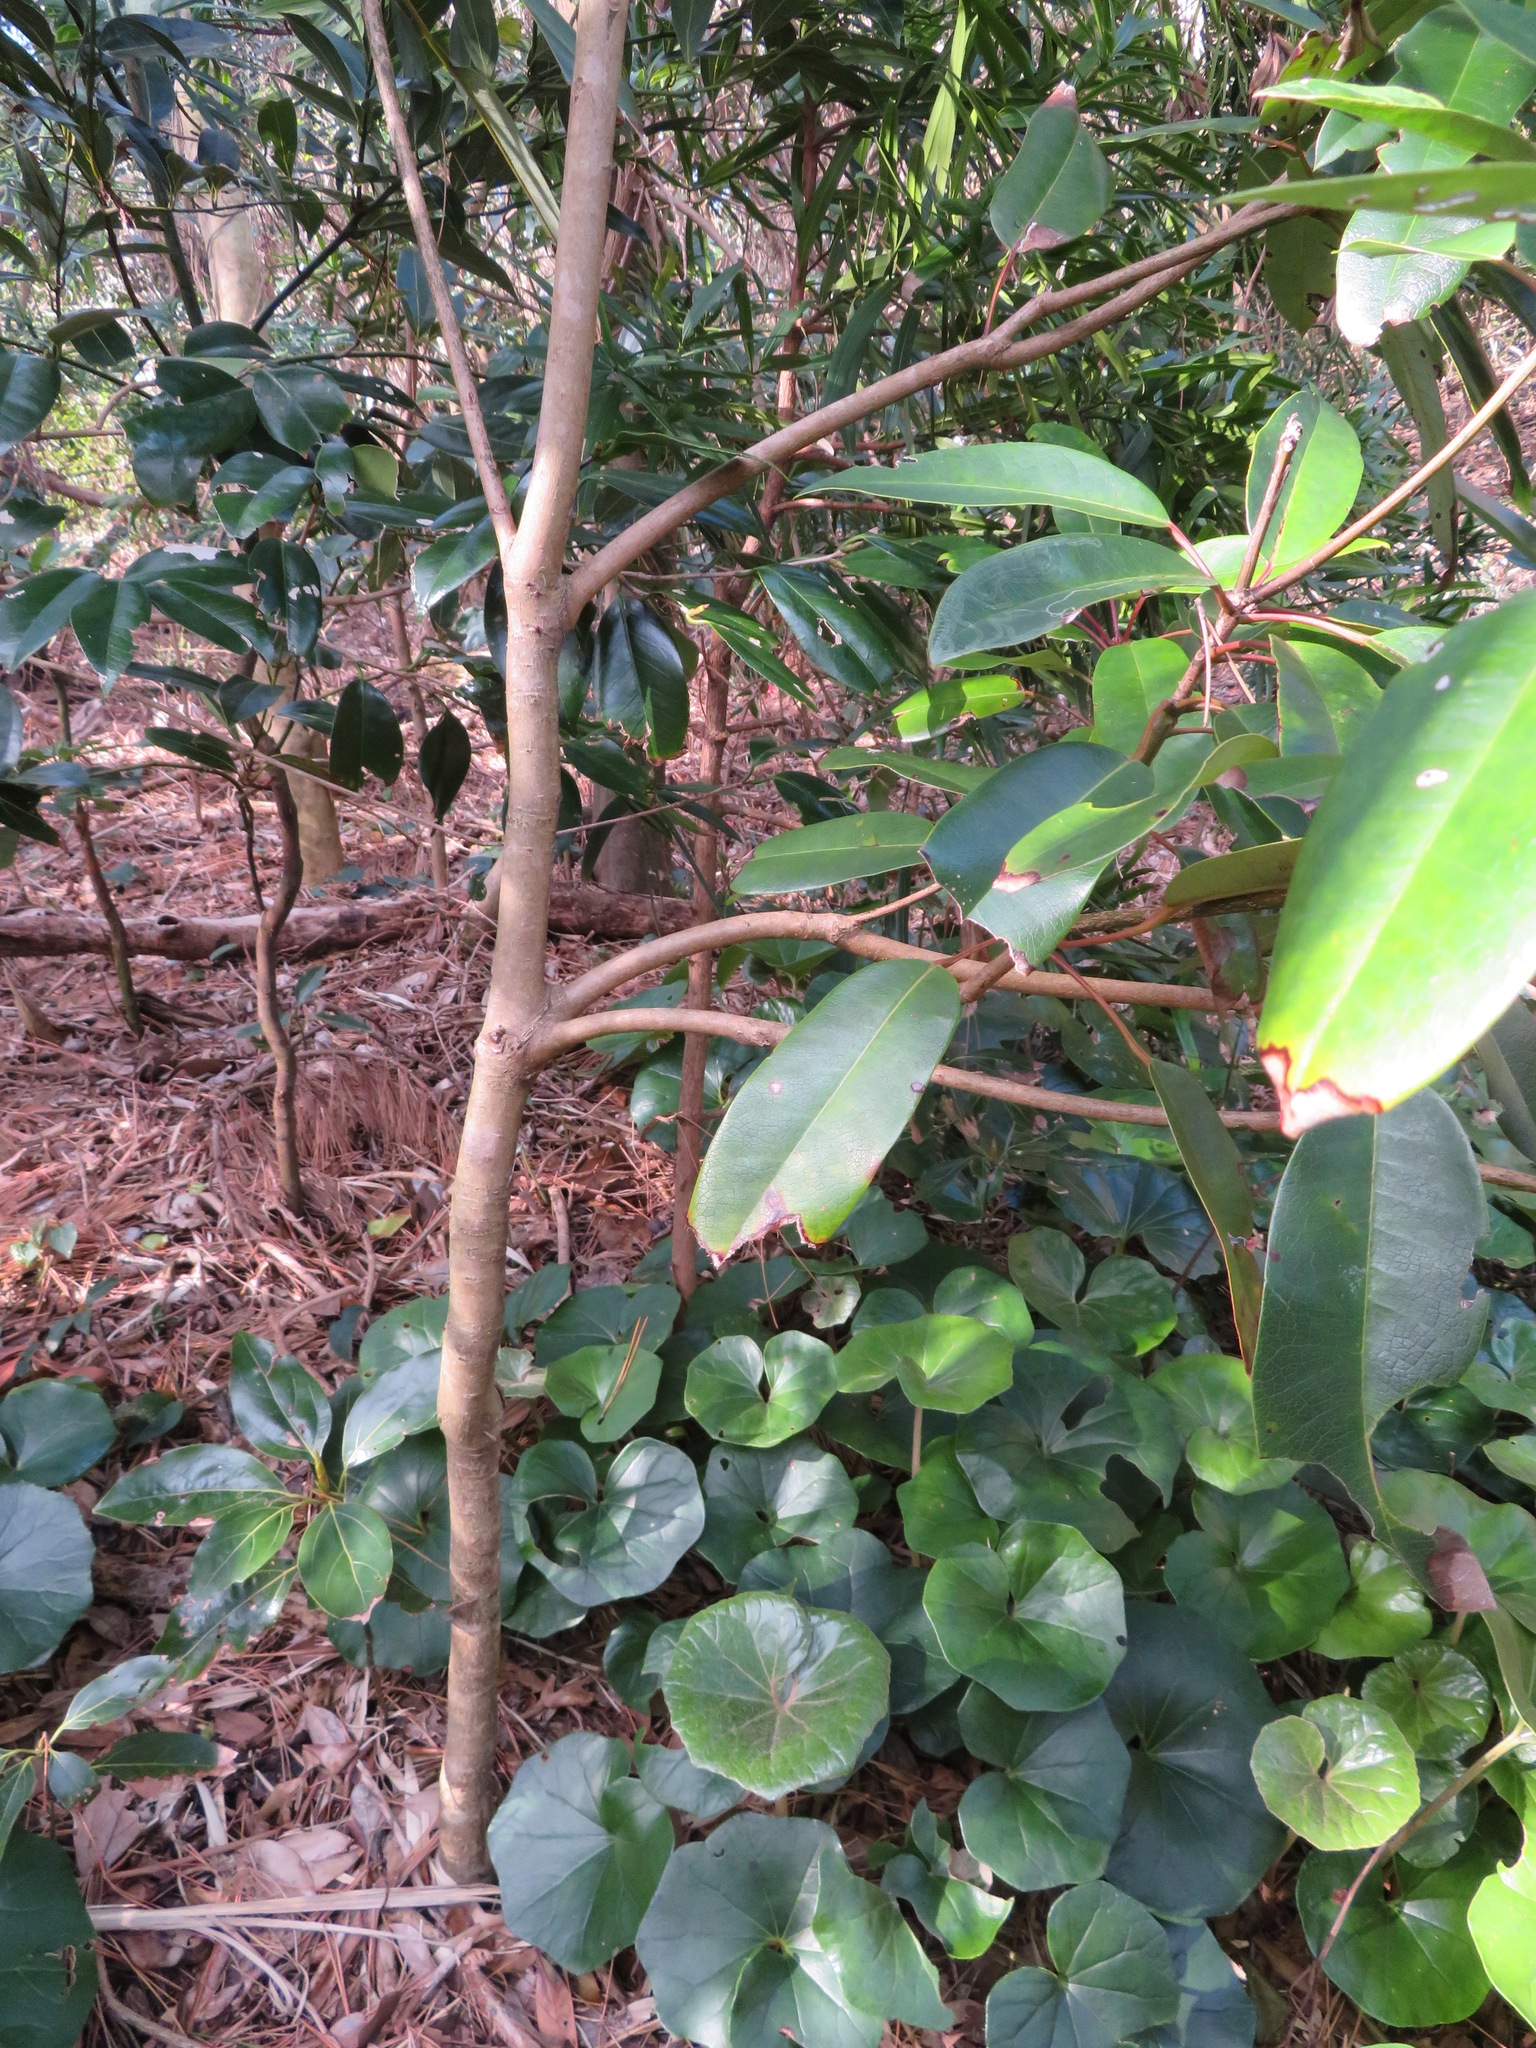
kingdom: Plantae
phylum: Tracheophyta
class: Magnoliopsida
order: Saxifragales
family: Daphniphyllaceae
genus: Daphniphyllum
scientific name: Daphniphyllum macropodum
